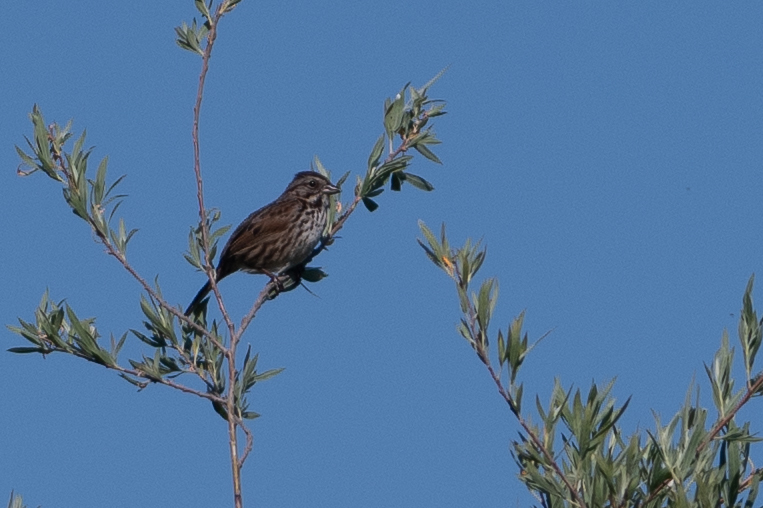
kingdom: Animalia
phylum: Chordata
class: Aves
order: Passeriformes
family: Passerellidae
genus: Melospiza
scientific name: Melospiza melodia
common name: Song sparrow
